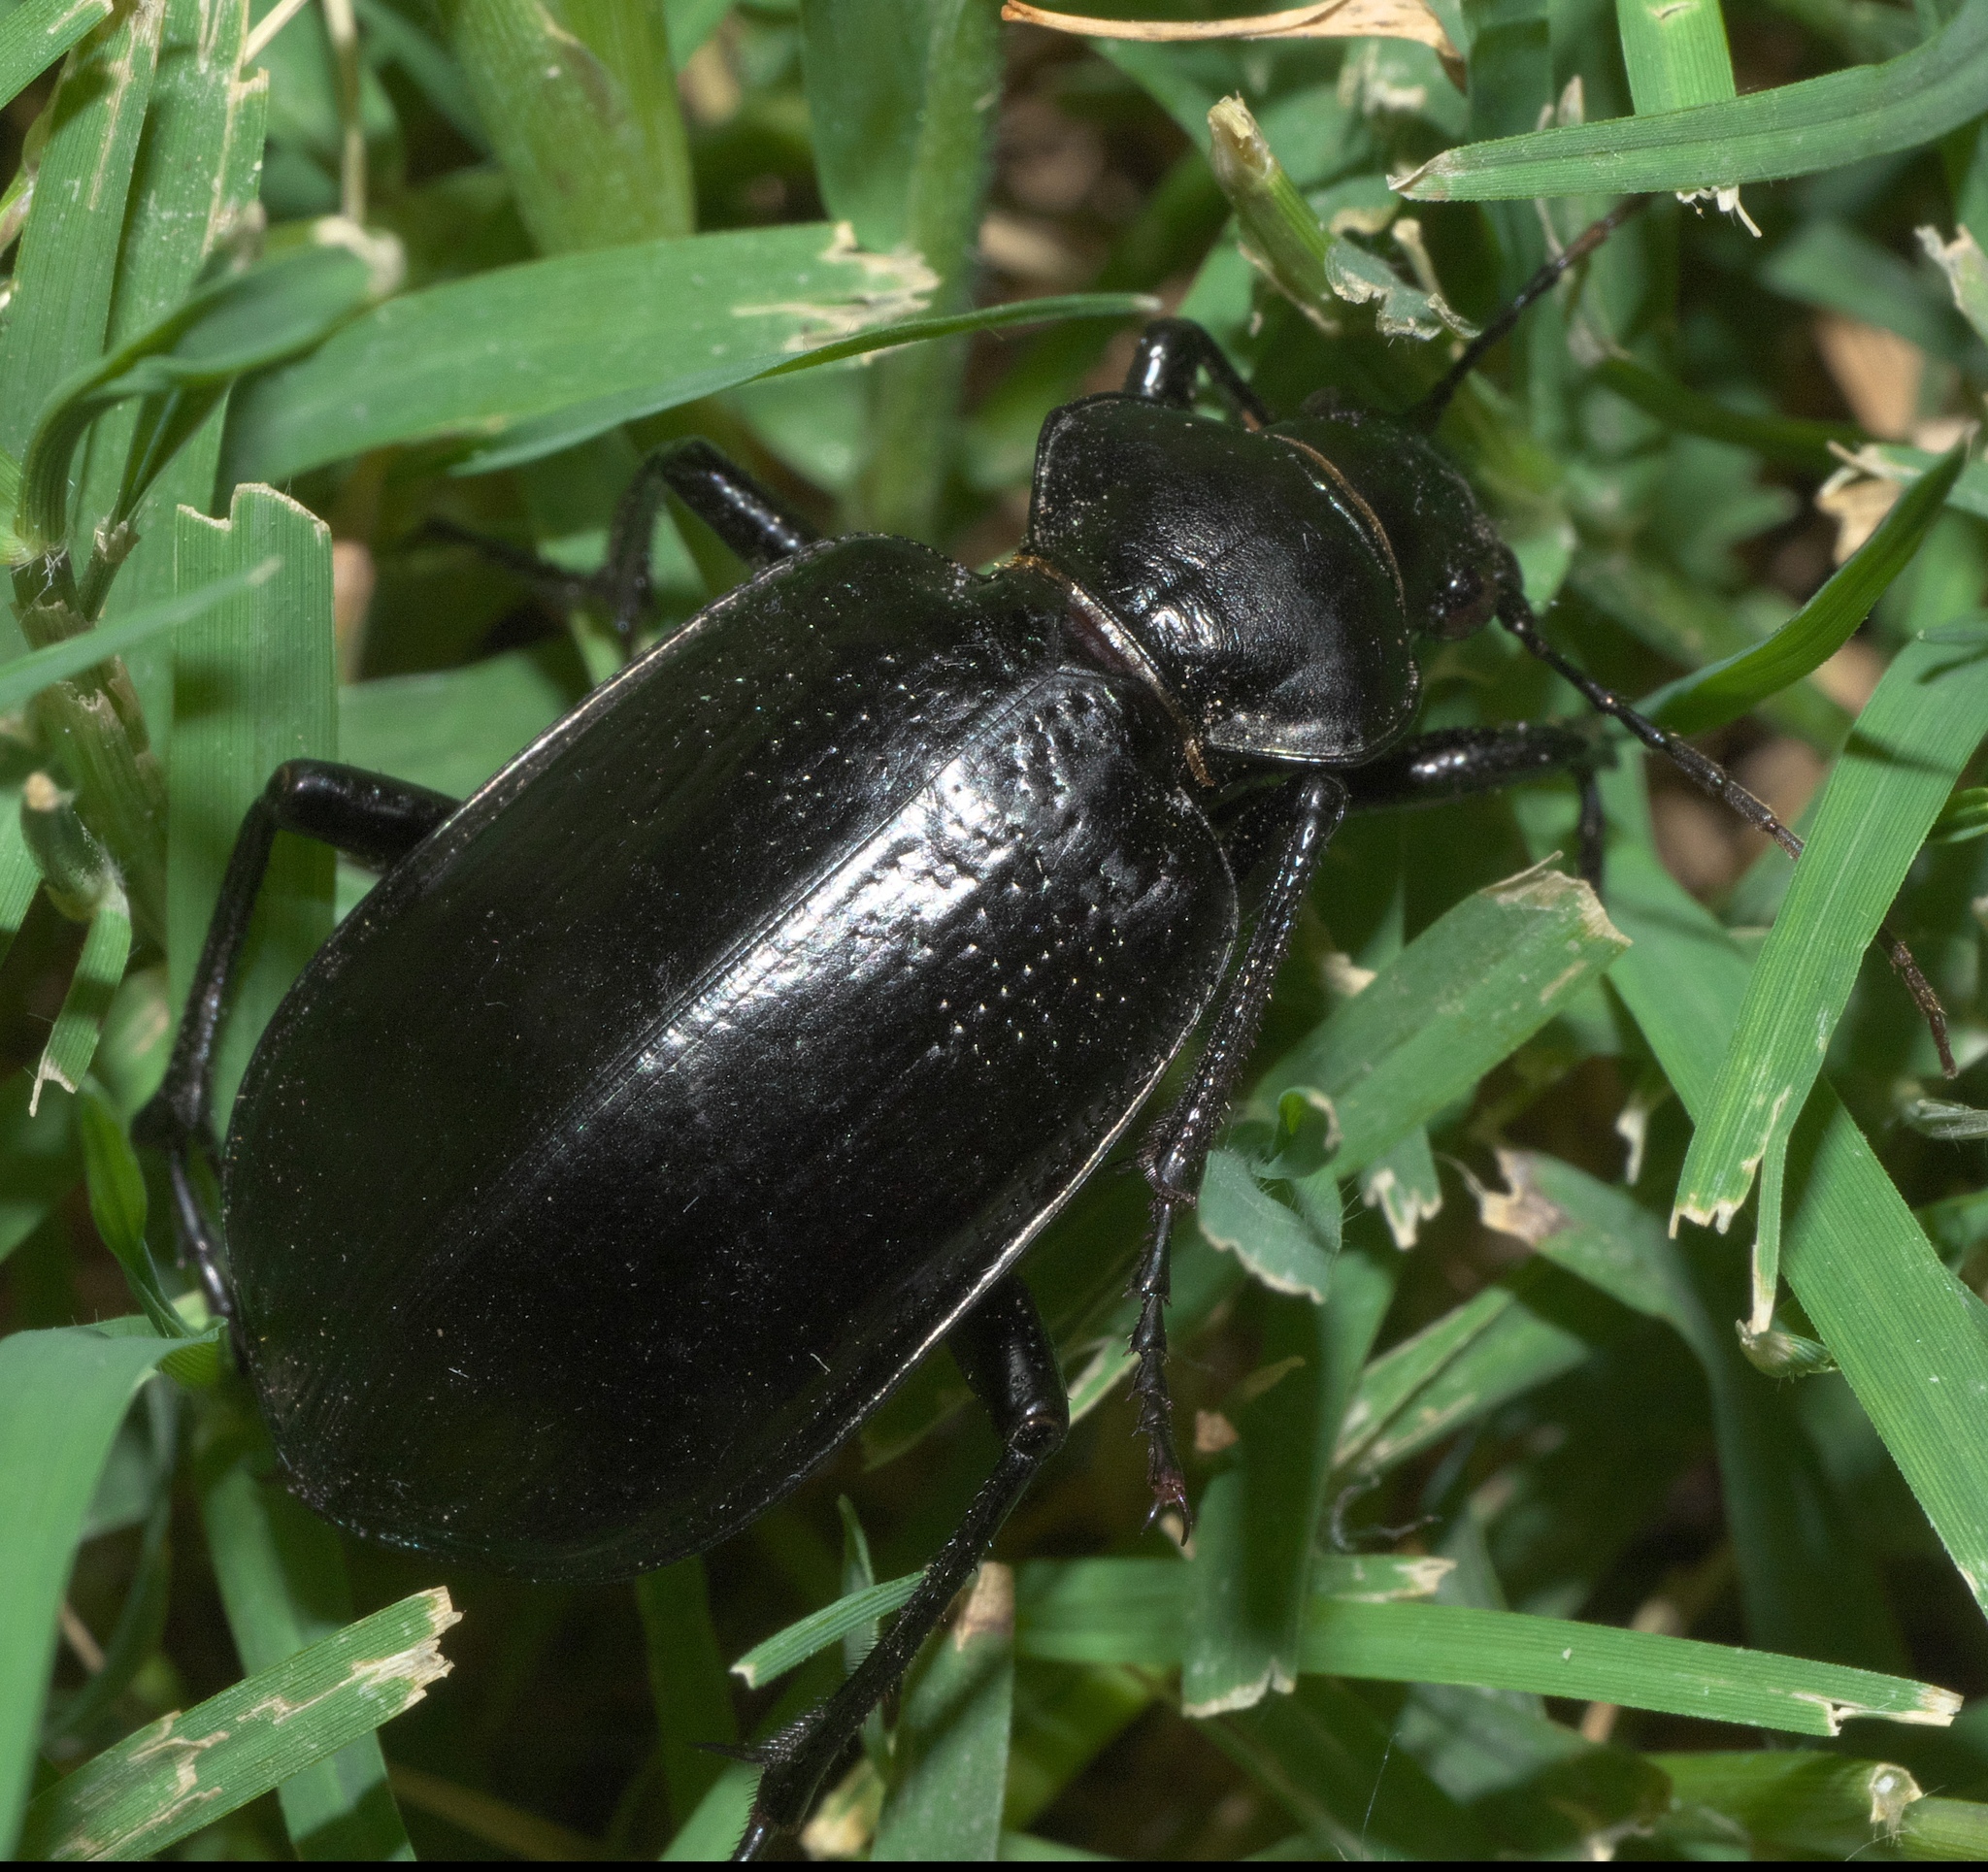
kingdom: Animalia
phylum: Arthropoda
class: Insecta
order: Coleoptera
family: Carabidae
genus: Calosoma
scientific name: Calosoma marginale
